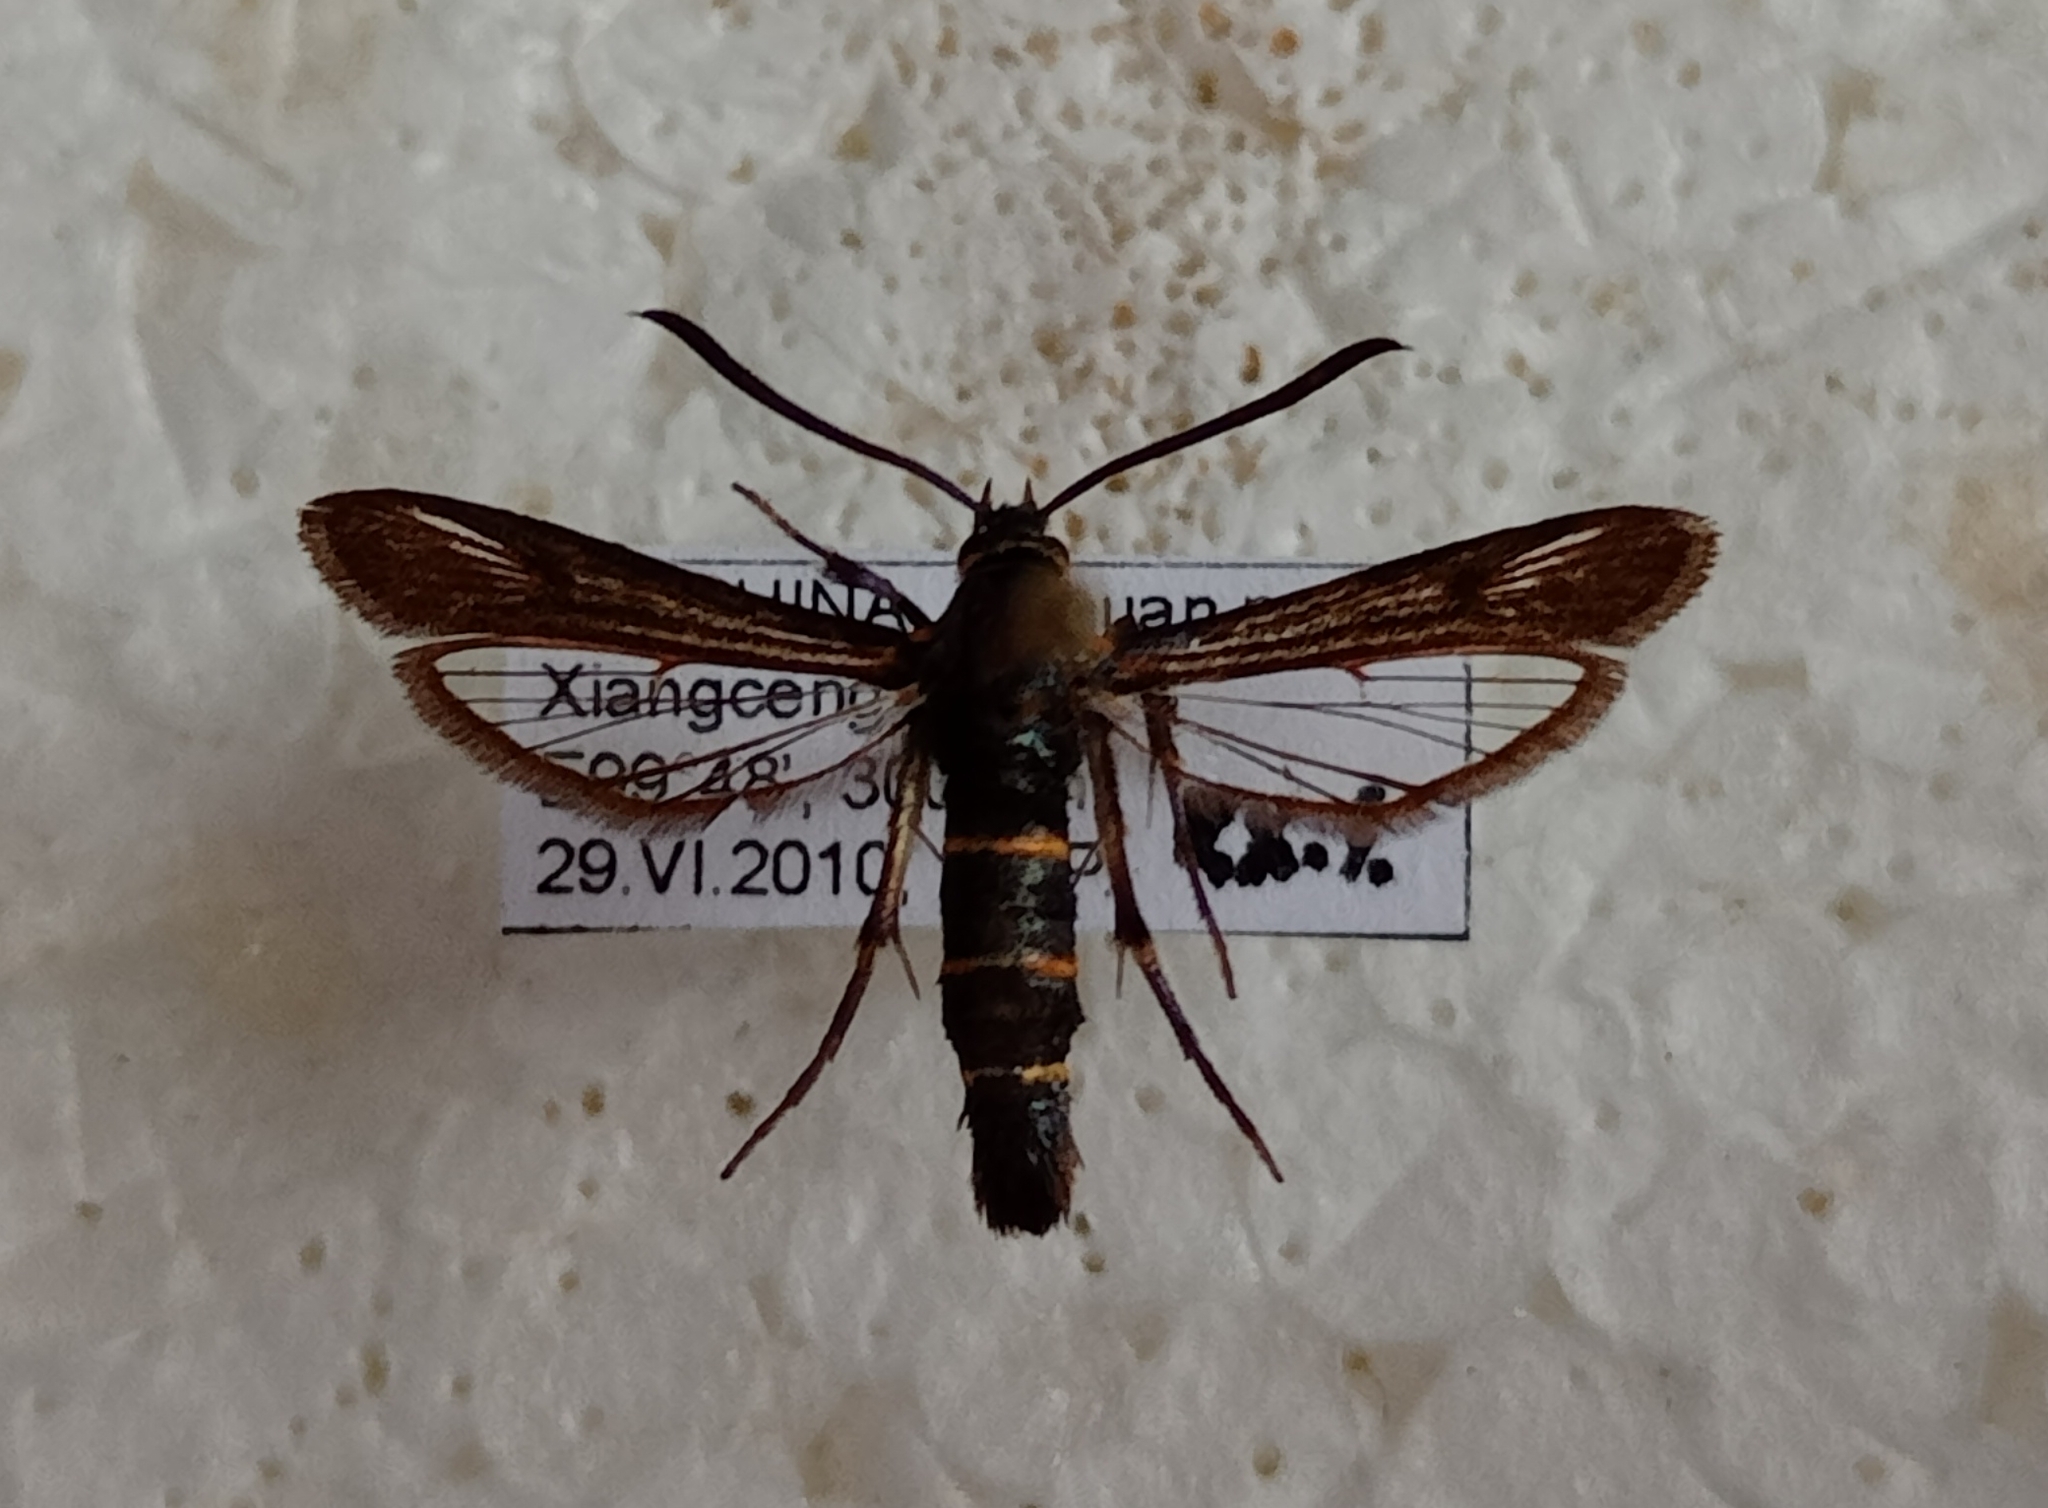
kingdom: Animalia
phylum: Arthropoda
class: Insecta
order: Lepidoptera
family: Sesiidae
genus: Ravitria
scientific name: Ravitria yunnanensis
